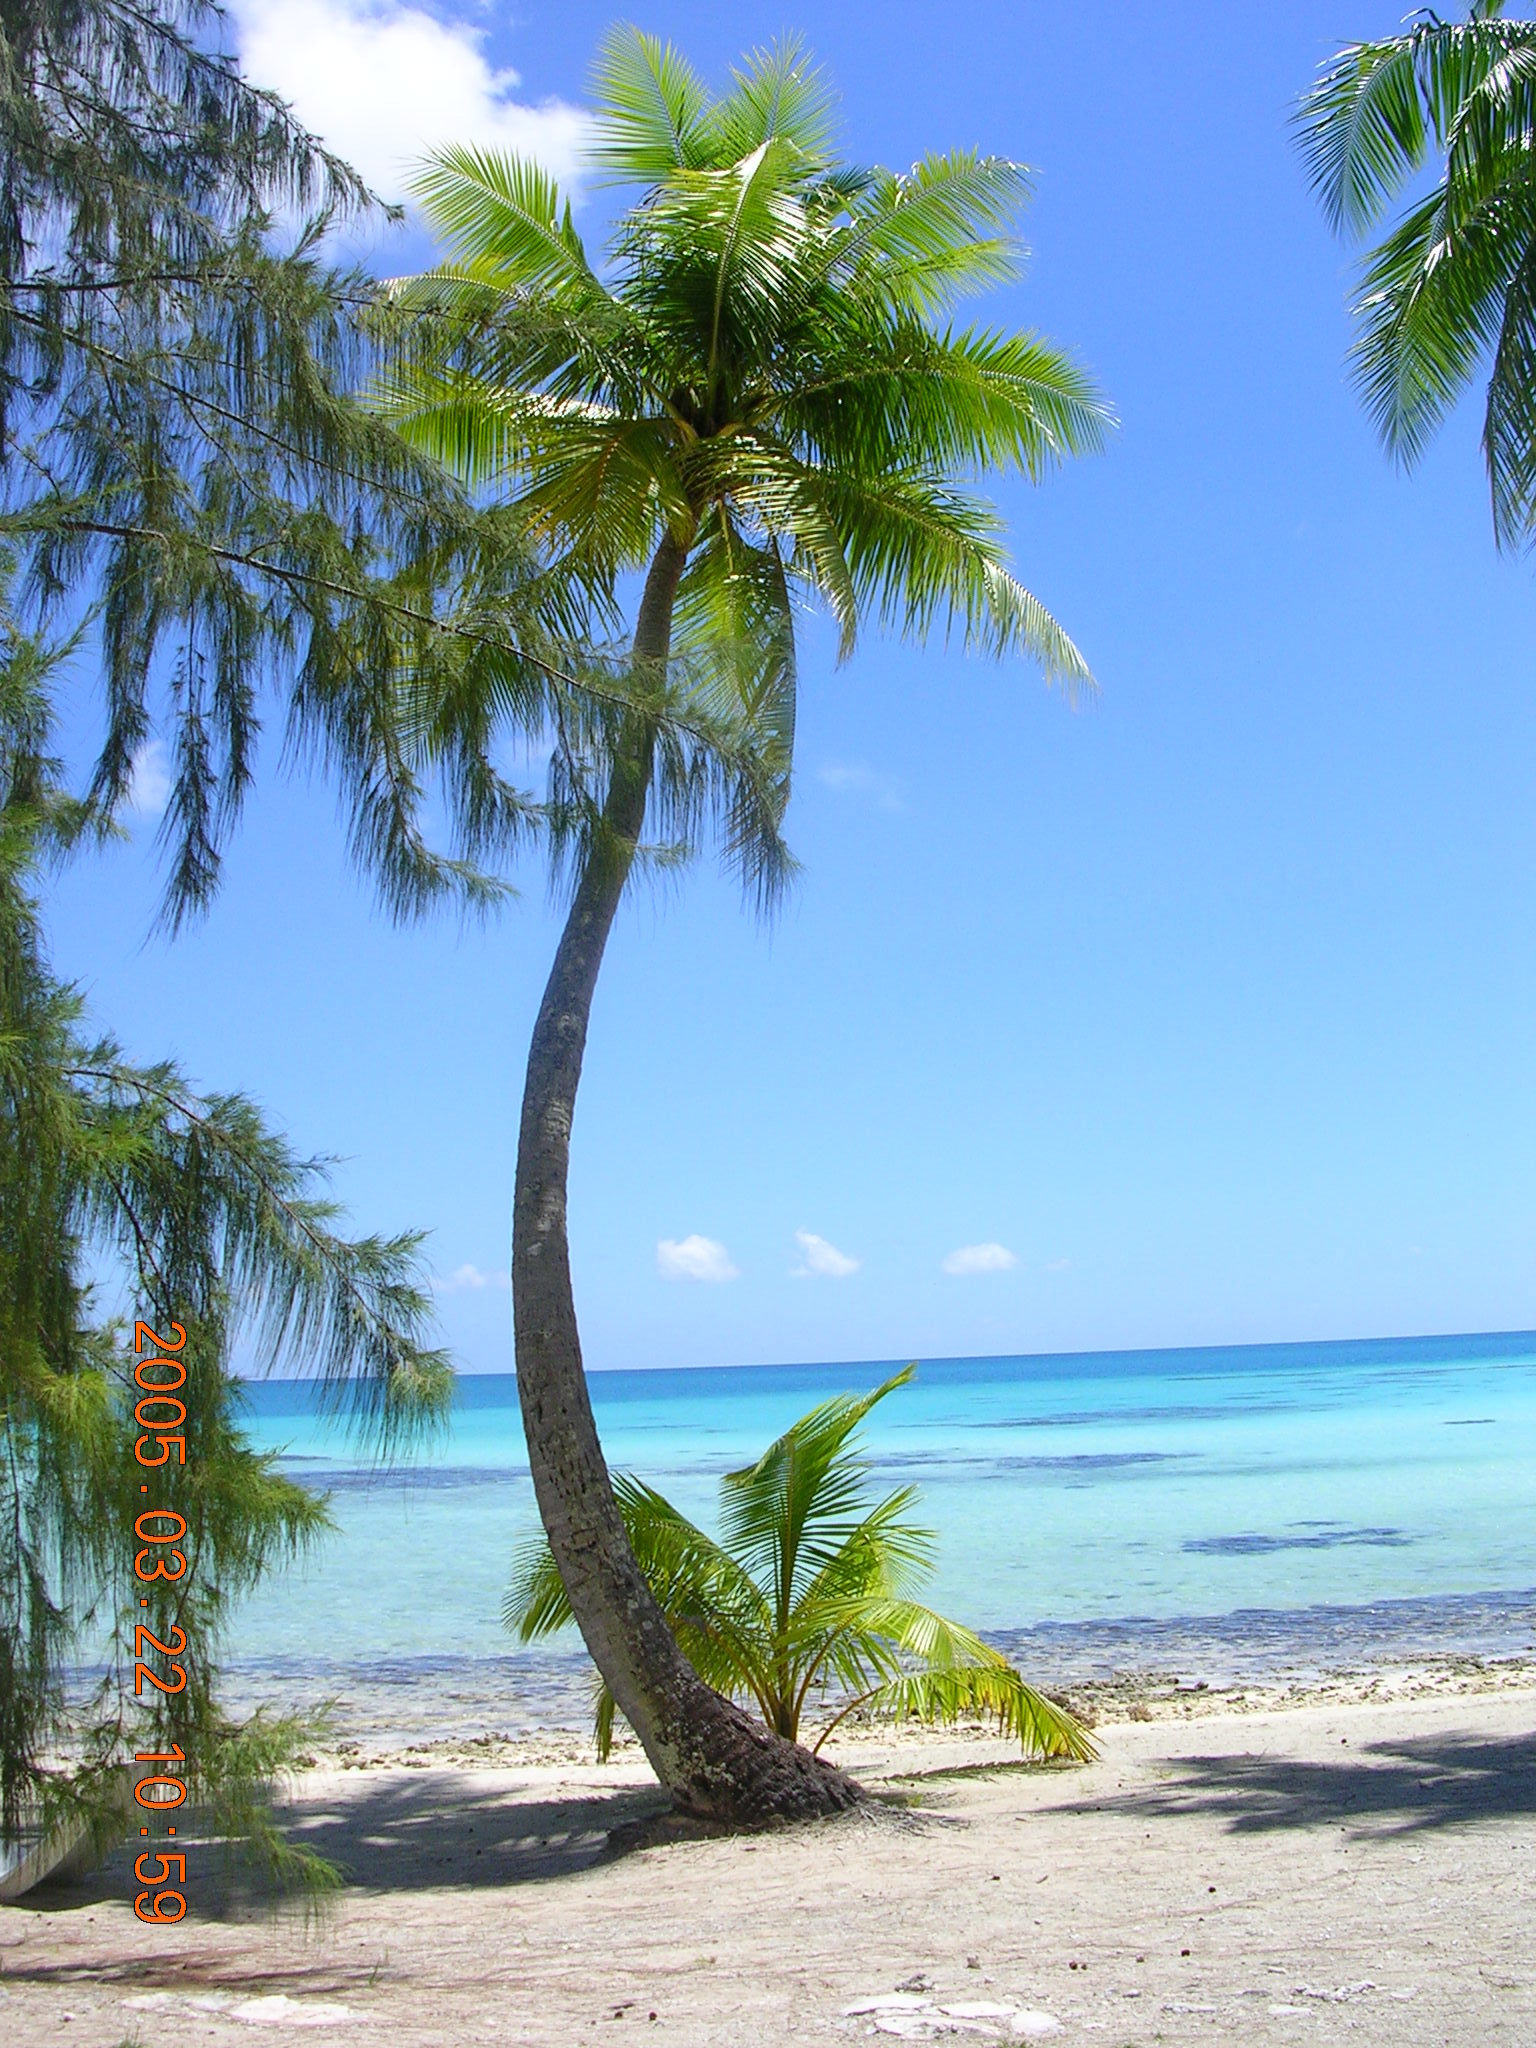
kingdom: Plantae
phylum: Tracheophyta
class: Liliopsida
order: Arecales
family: Arecaceae
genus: Cocos
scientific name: Cocos nucifera
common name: Coconut palm
